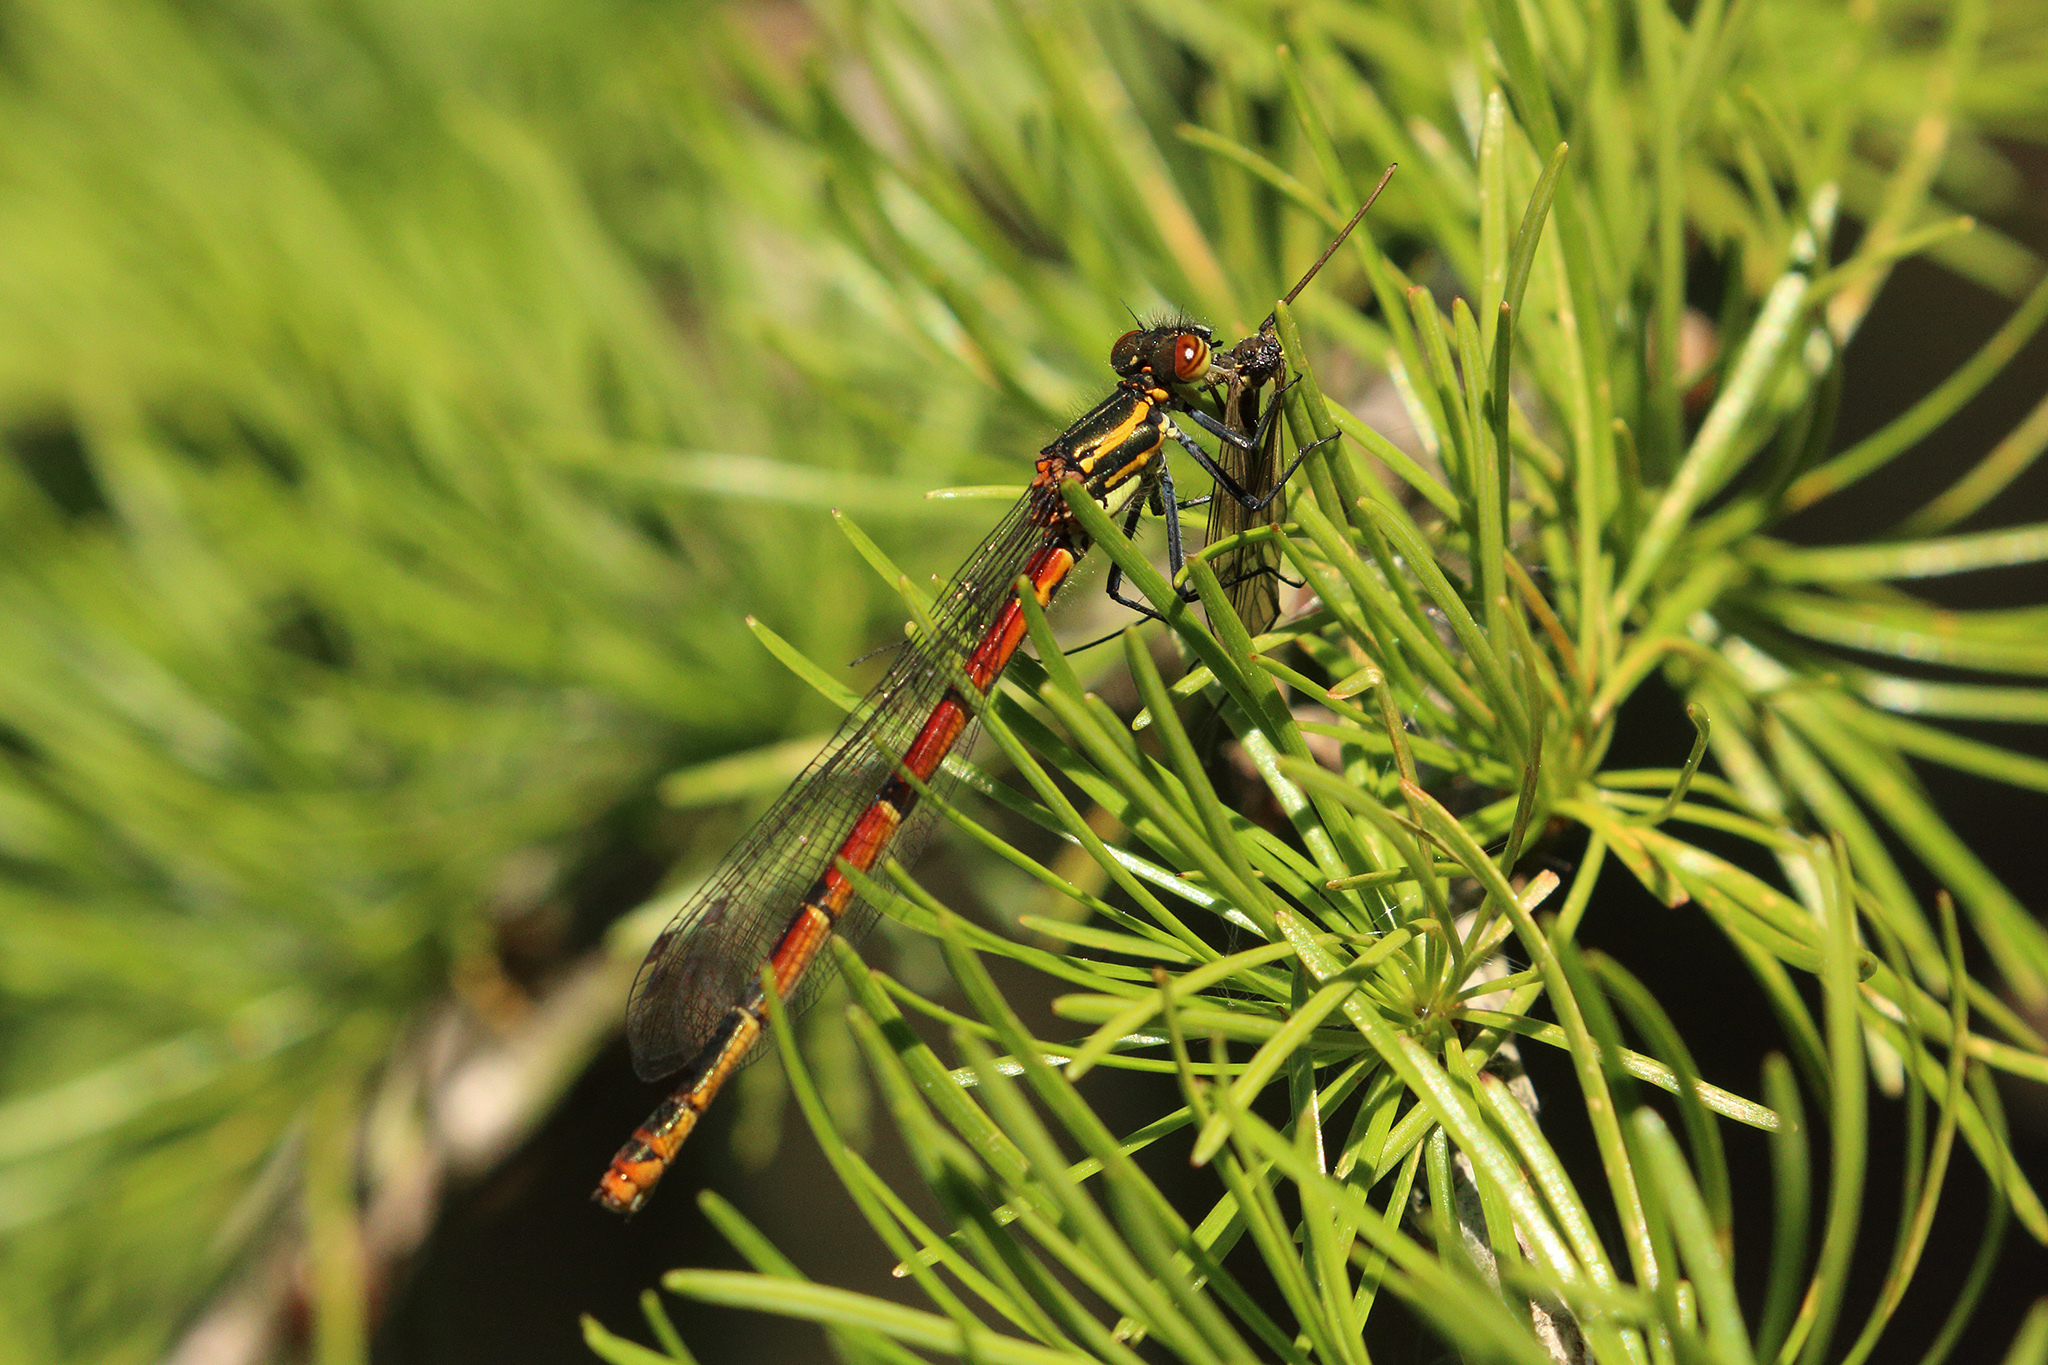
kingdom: Animalia
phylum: Arthropoda
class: Insecta
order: Odonata
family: Coenagrionidae
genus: Pyrrhosoma
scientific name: Pyrrhosoma nymphula
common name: Large red damsel
